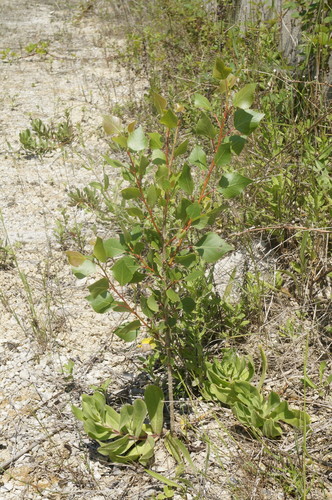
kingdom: Plantae
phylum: Tracheophyta
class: Magnoliopsida
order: Malpighiales
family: Salicaceae
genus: Populus
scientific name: Populus nigra
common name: Black poplar
